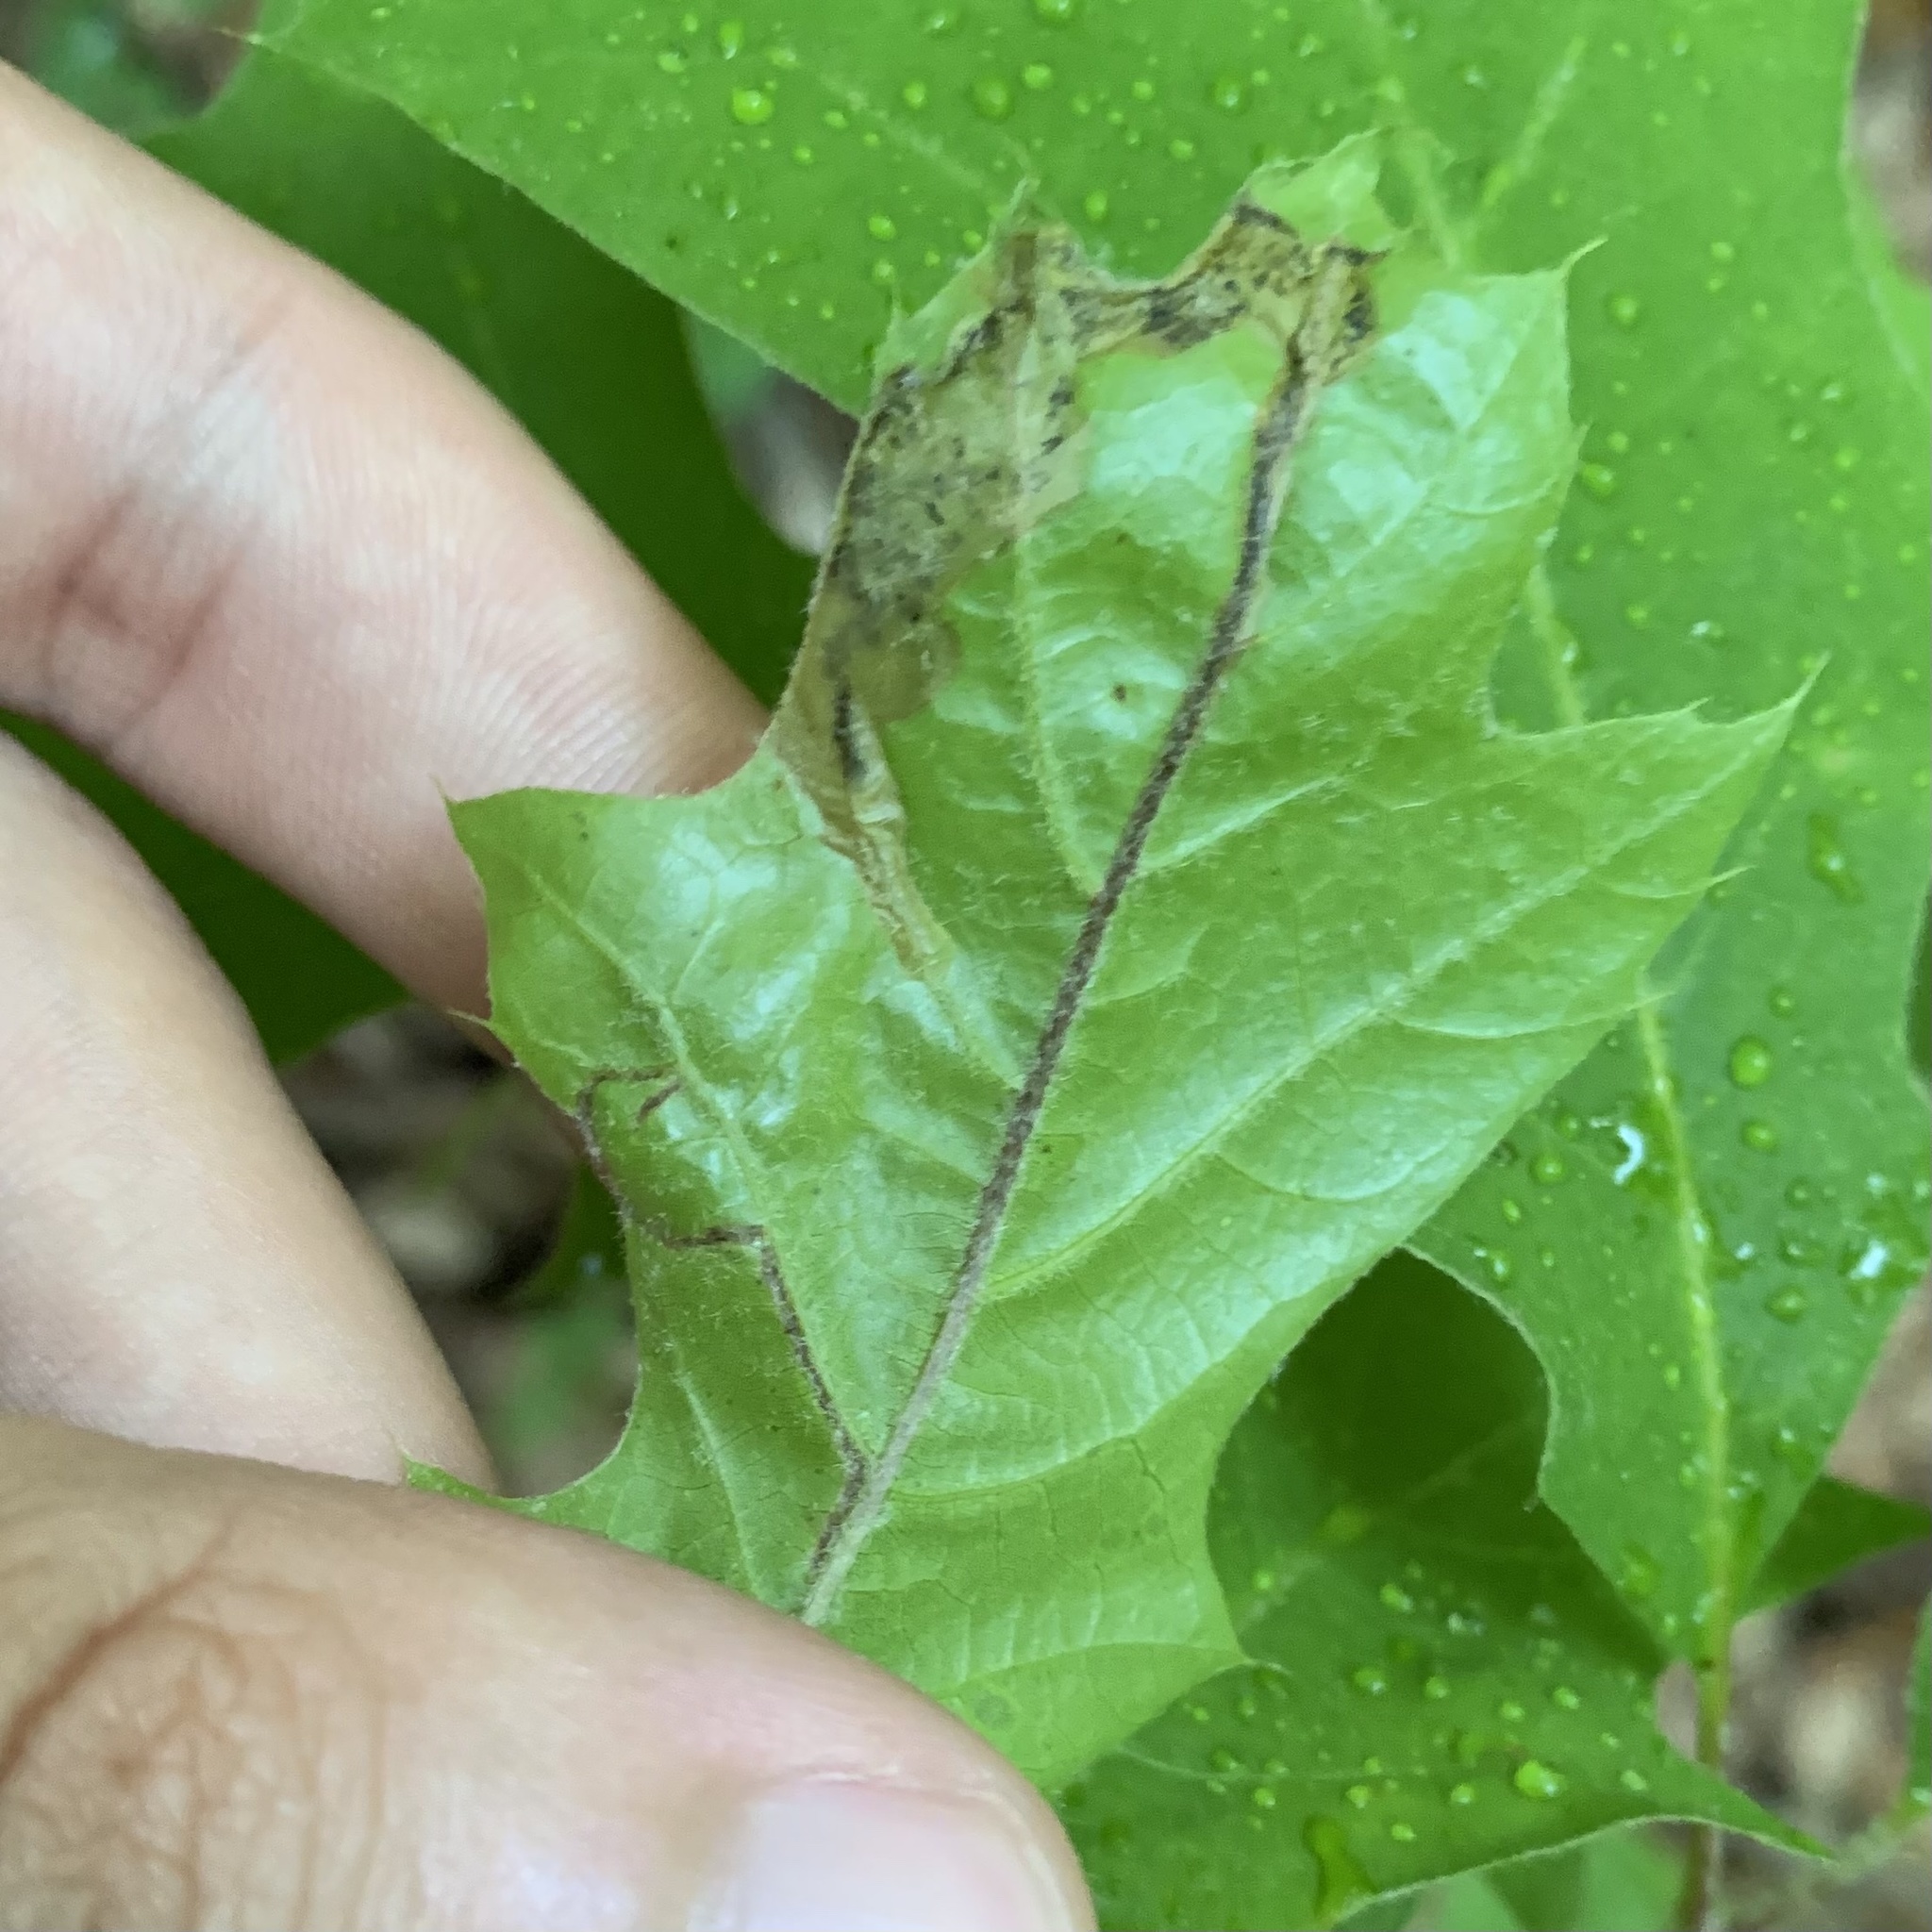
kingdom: Animalia
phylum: Arthropoda
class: Insecta
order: Lepidoptera
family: Gracillariidae
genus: Neurobathra
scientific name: Neurobathra strigifinitella
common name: Finite-channeled leafminer moth
